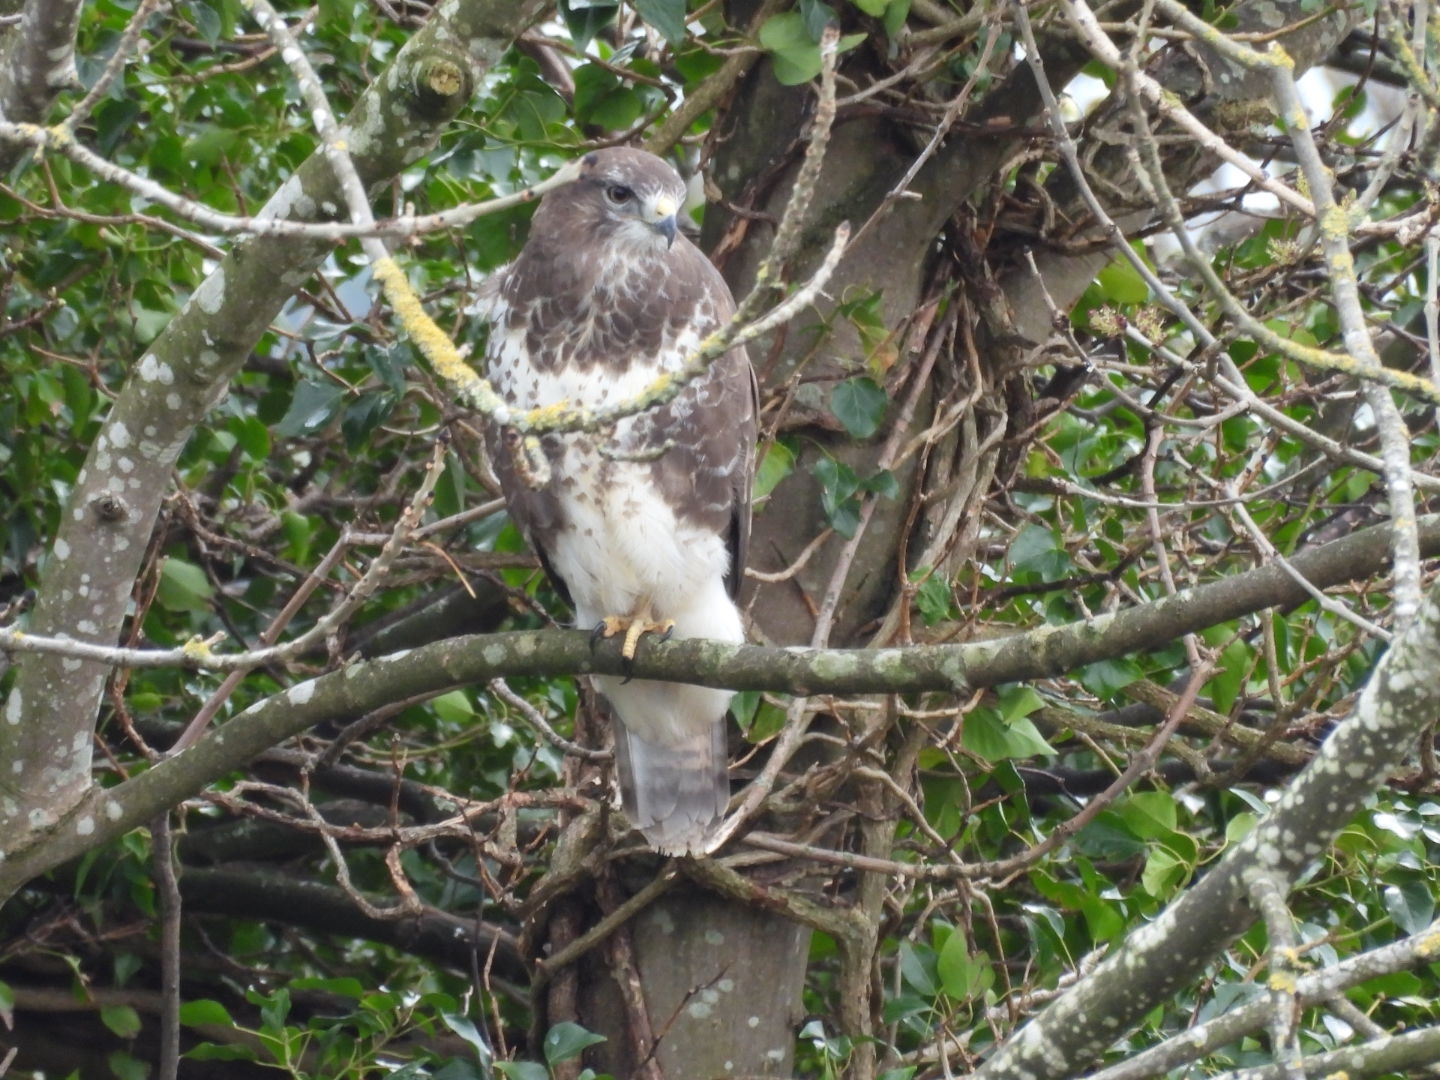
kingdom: Animalia
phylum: Chordata
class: Aves
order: Accipitriformes
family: Accipitridae
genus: Buteo
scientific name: Buteo buteo
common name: Common buzzard
